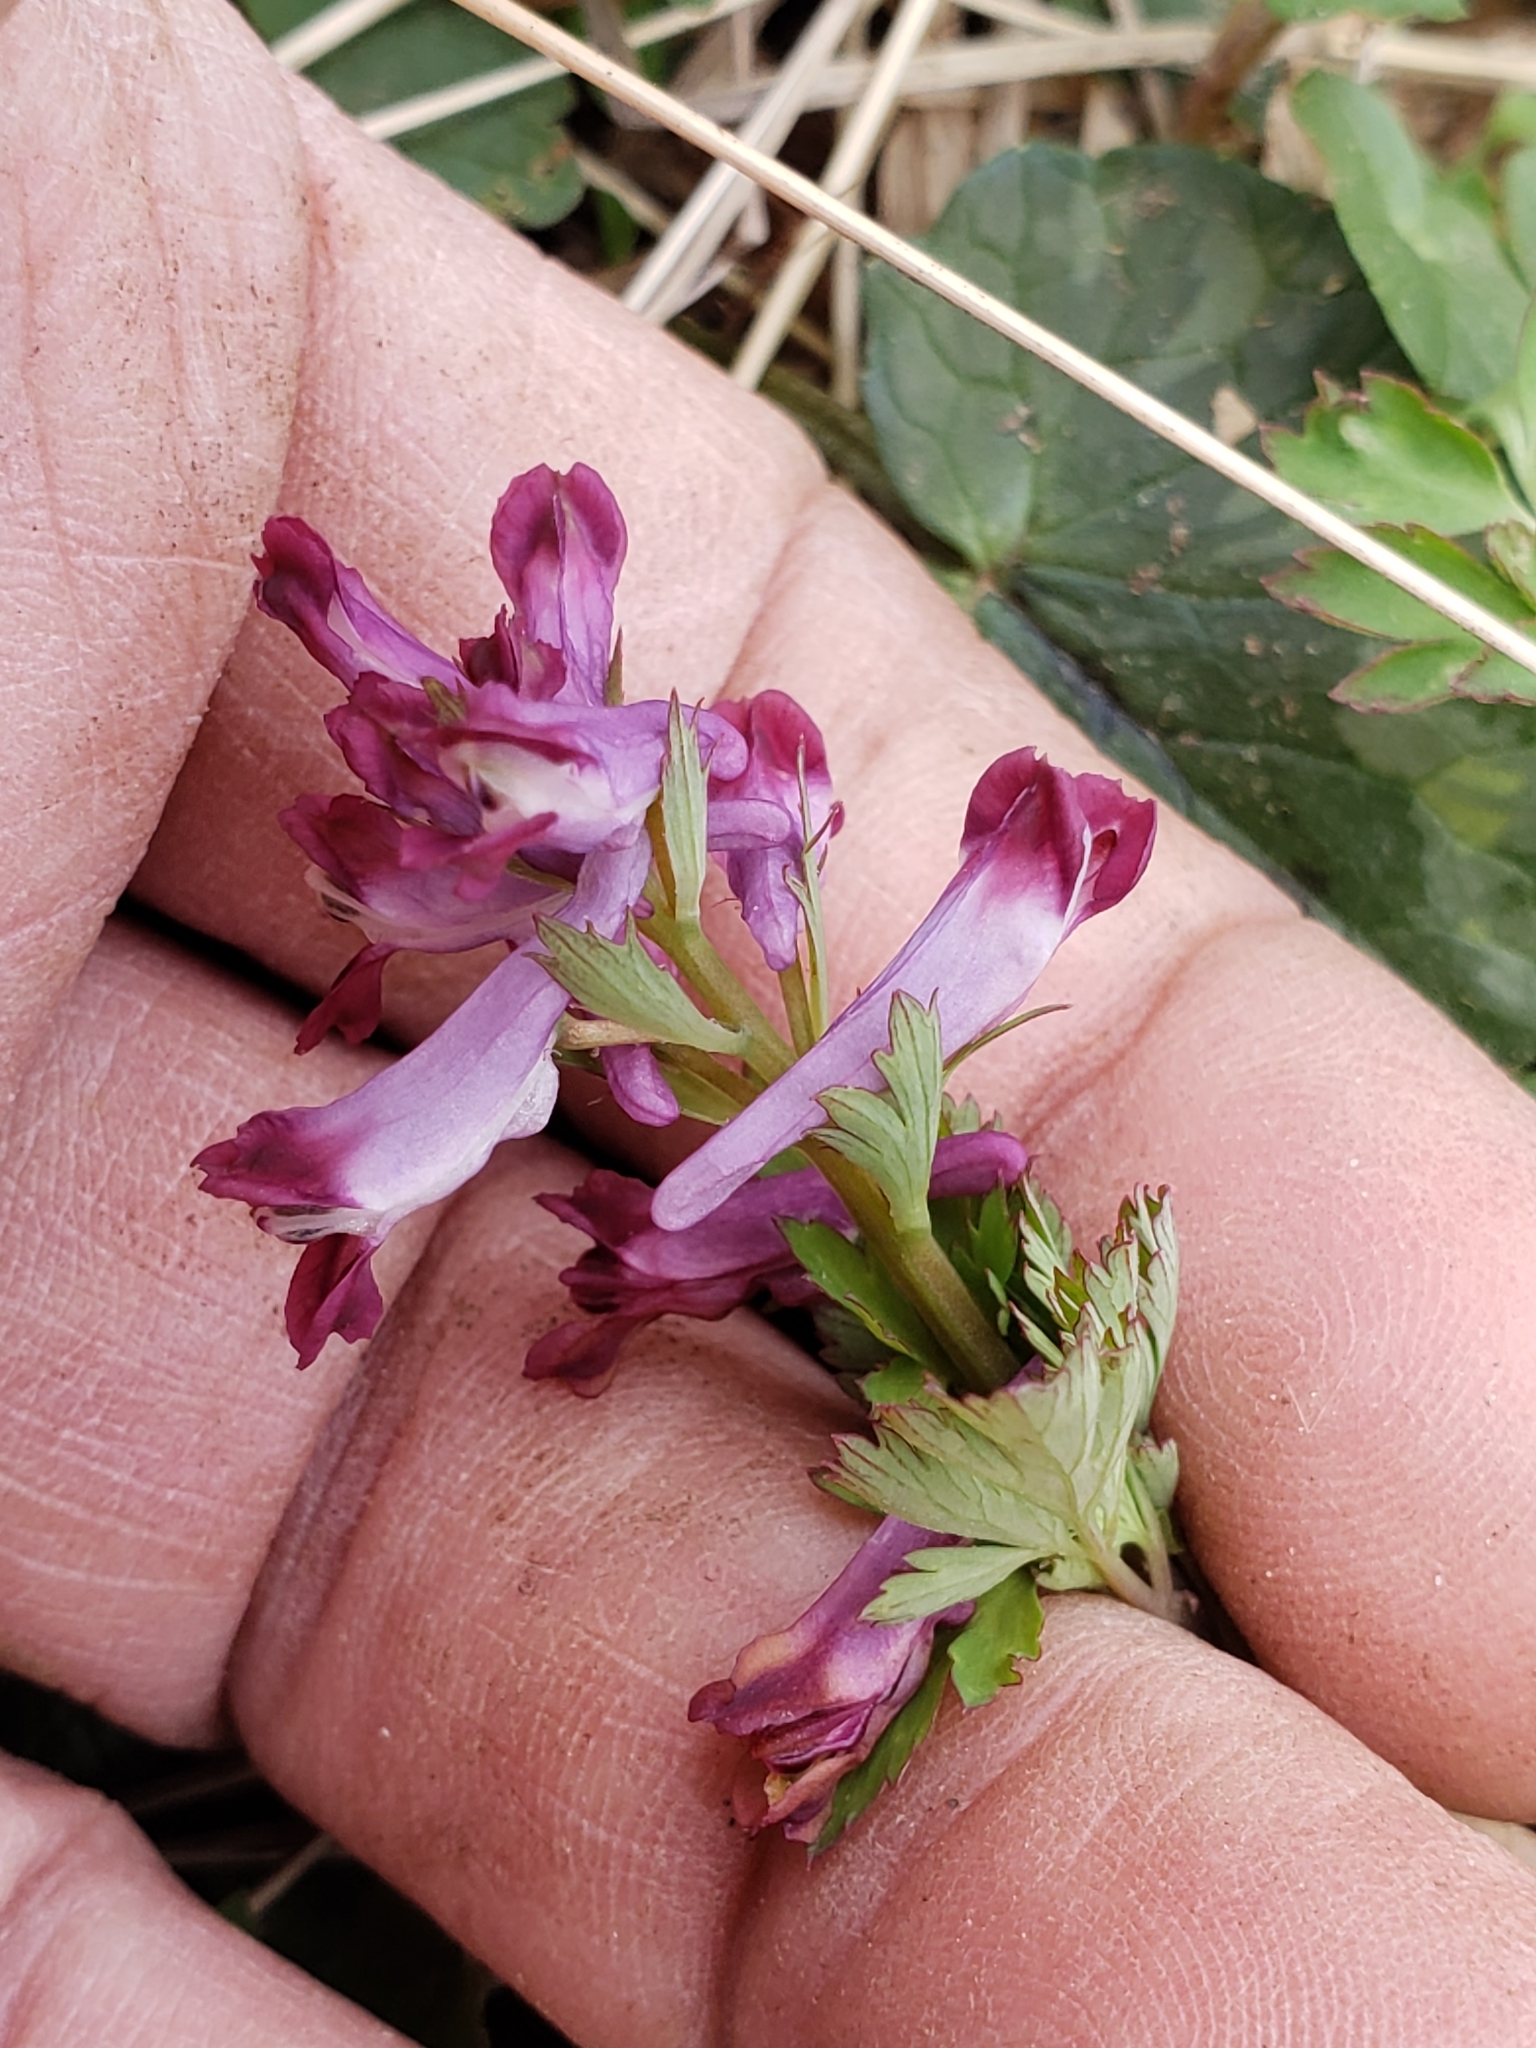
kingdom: Plantae
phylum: Tracheophyta
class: Magnoliopsida
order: Ranunculales
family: Papaveraceae
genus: Corydalis
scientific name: Corydalis incisa
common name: Incised fumewort
